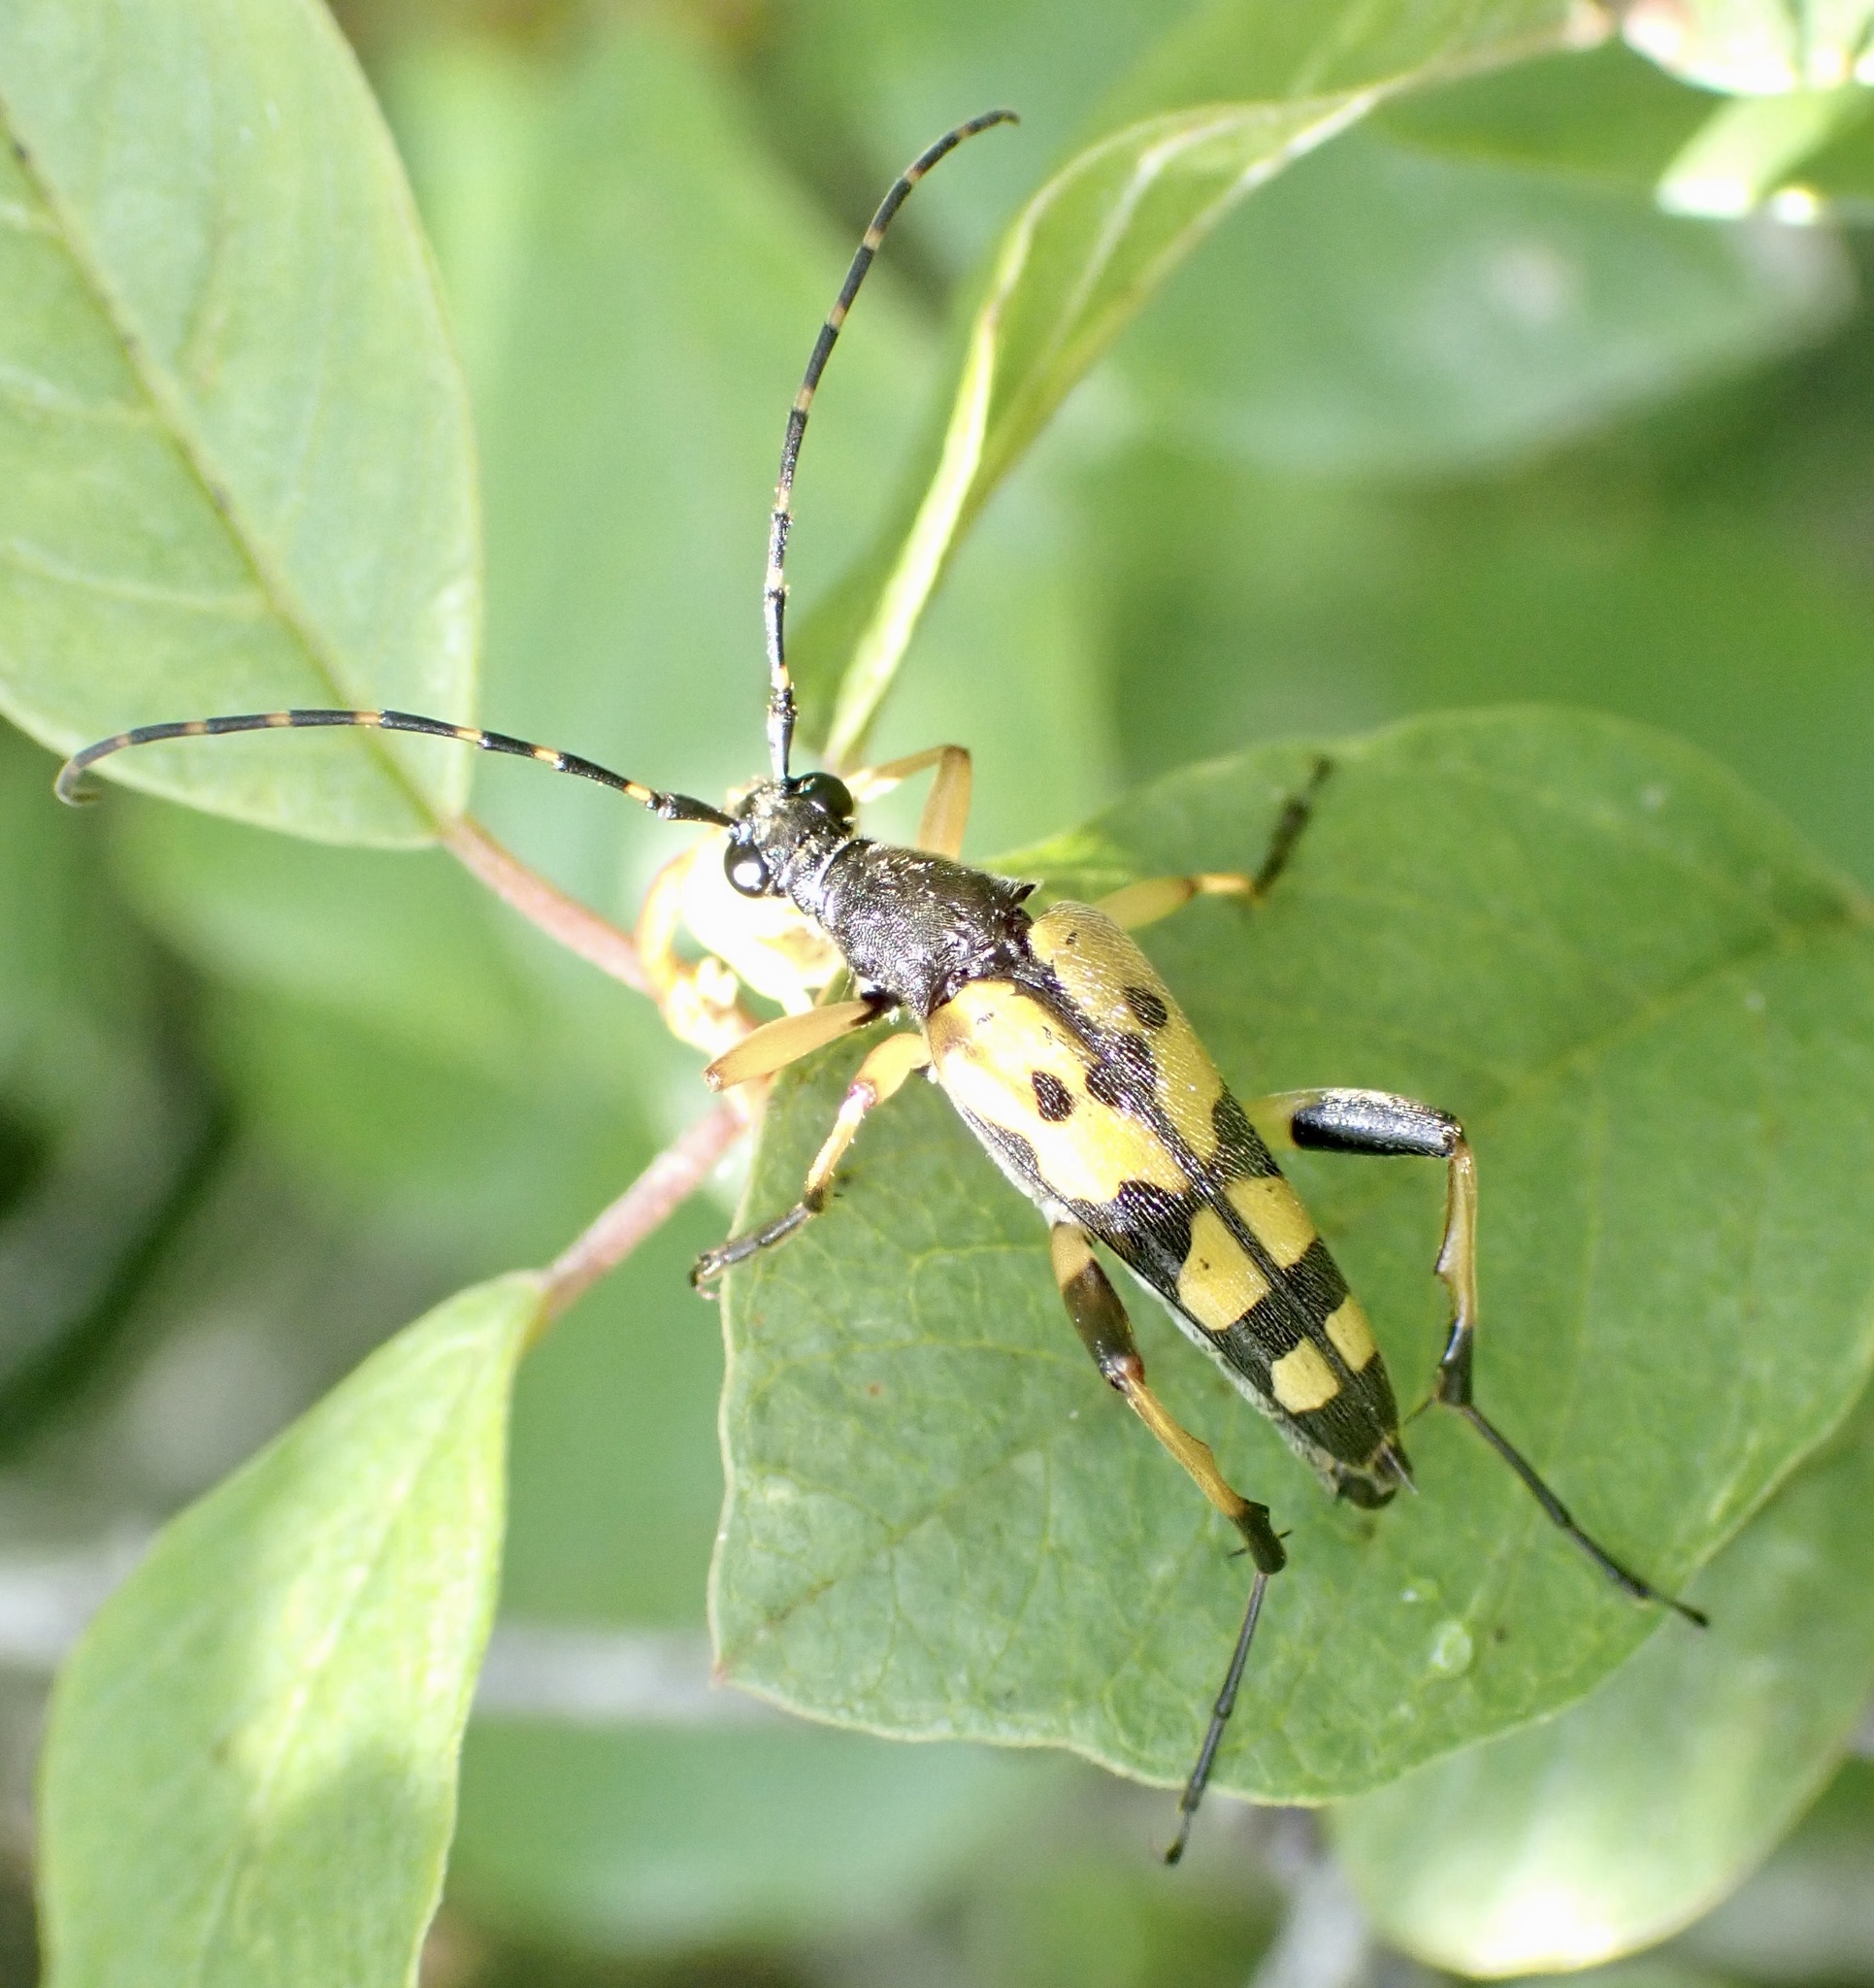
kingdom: Animalia
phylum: Arthropoda
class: Insecta
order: Coleoptera
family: Cerambycidae
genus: Rutpela
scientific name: Rutpela maculata
